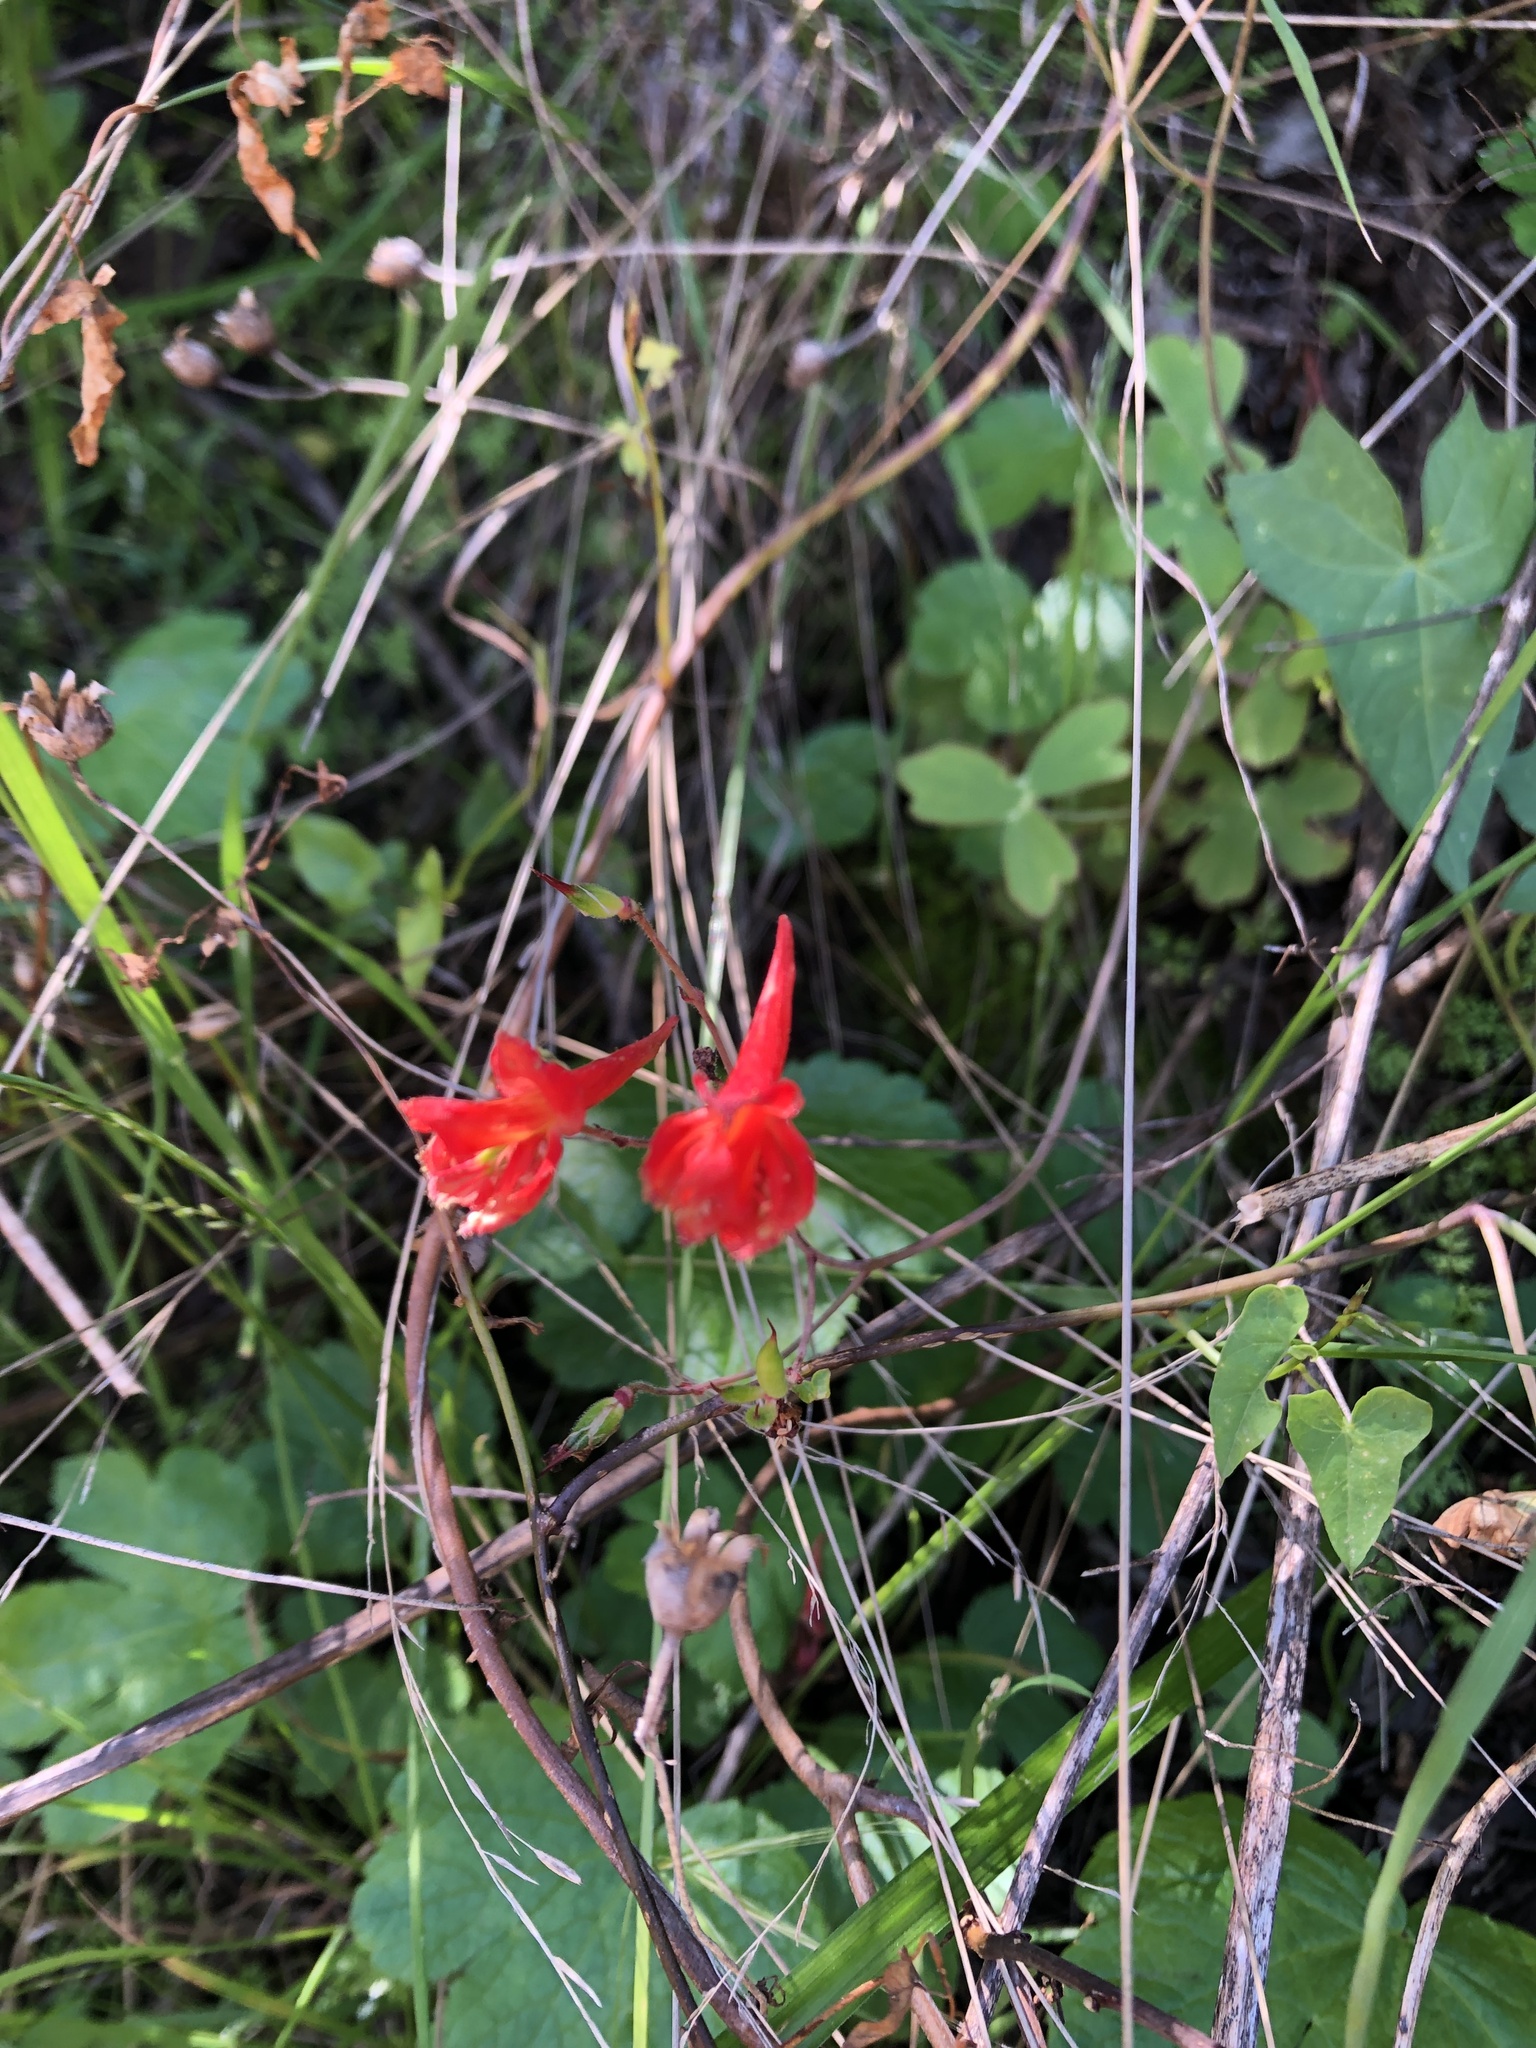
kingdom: Plantae
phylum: Tracheophyta
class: Magnoliopsida
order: Ranunculales
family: Ranunculaceae
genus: Delphinium
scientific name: Delphinium nudicaule
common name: Red larkspur
